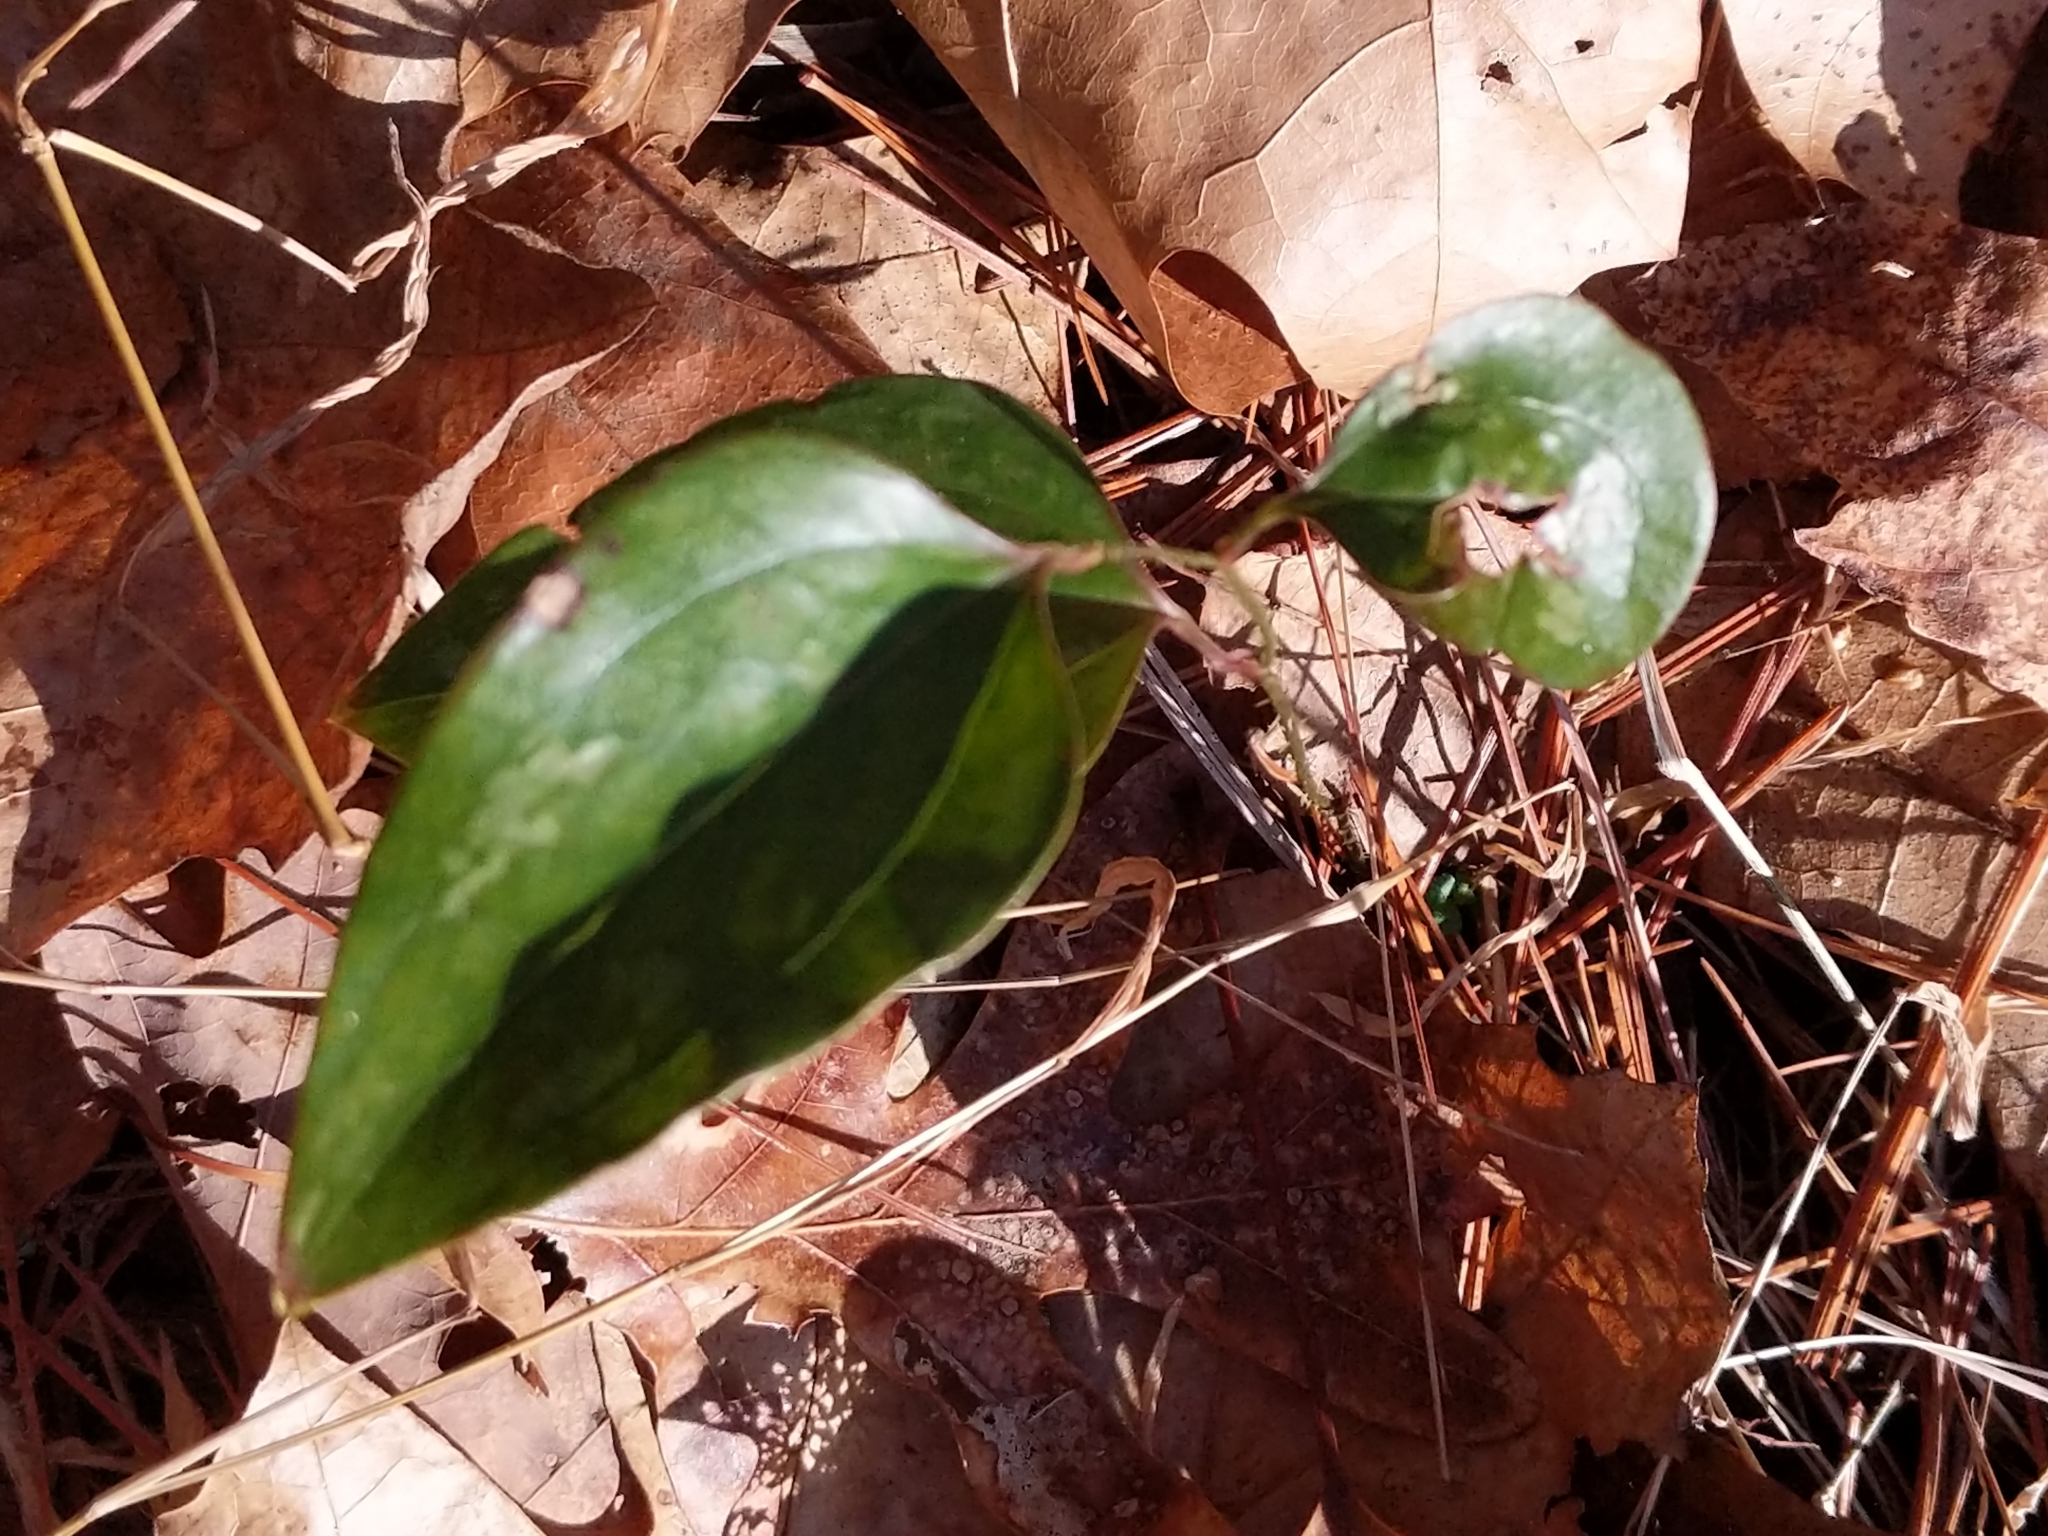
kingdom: Plantae
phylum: Tracheophyta
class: Liliopsida
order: Liliales
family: Smilacaceae
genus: Smilax
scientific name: Smilax glauca
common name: Cat greenbrier
